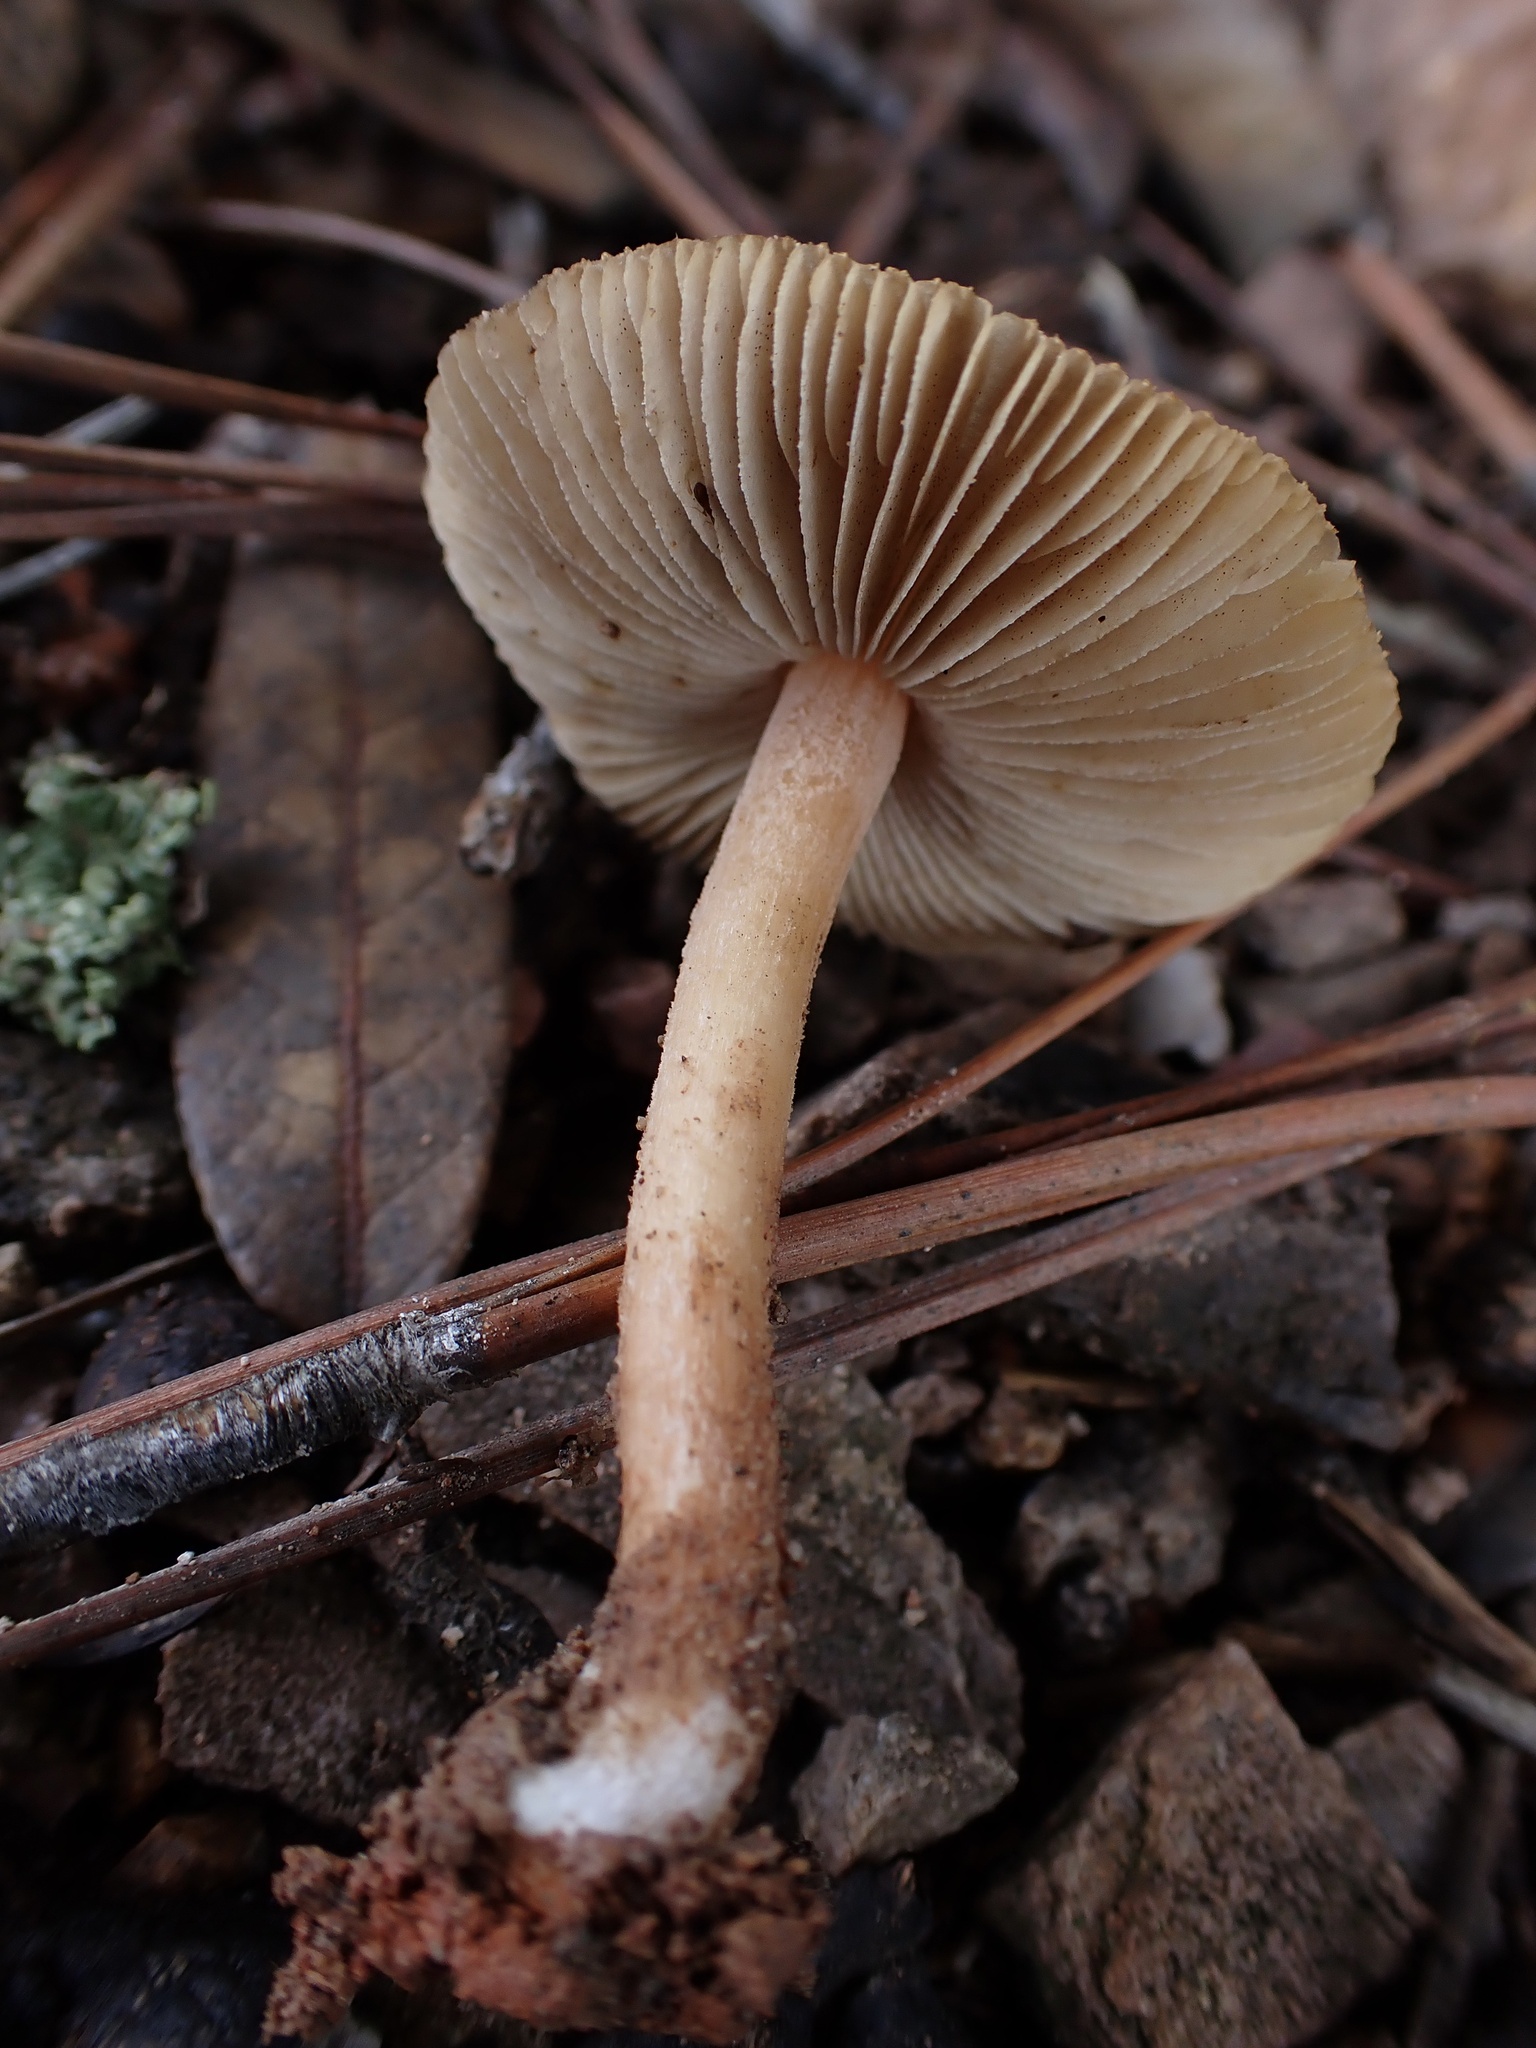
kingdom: Fungi
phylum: Basidiomycota
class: Agaricomycetes
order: Agaricales
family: Inocybaceae
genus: Inocybe
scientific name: Inocybe subradiata
